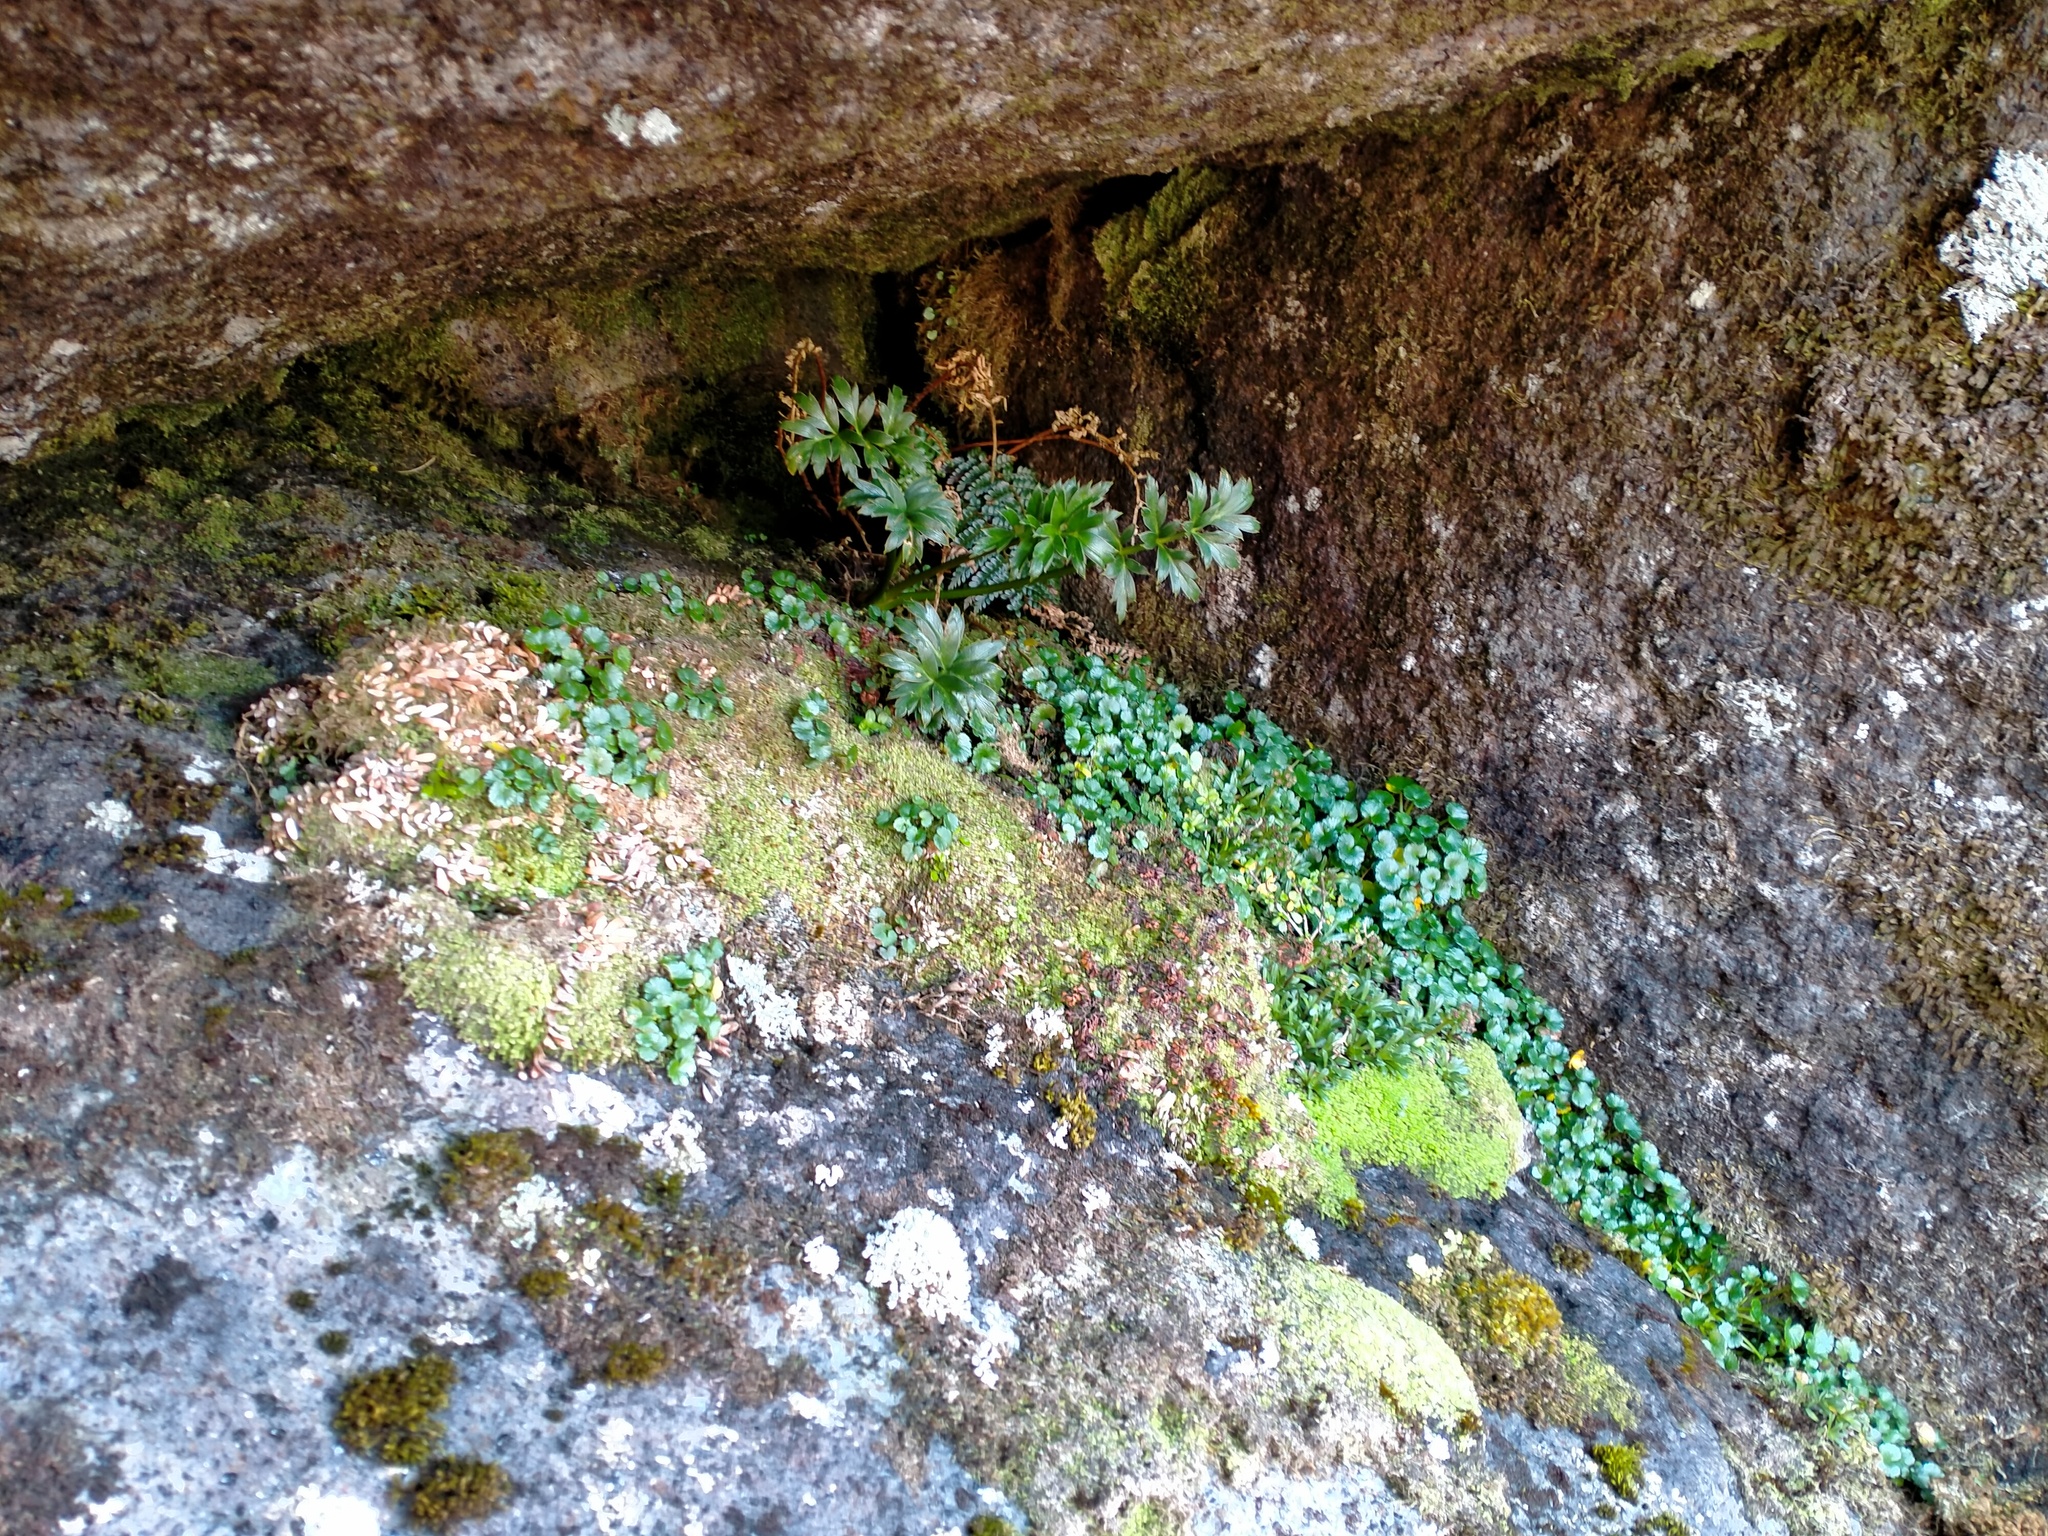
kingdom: Plantae
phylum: Tracheophyta
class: Magnoliopsida
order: Apiales
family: Apiaceae
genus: Azorella
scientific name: Azorella schizeilema
